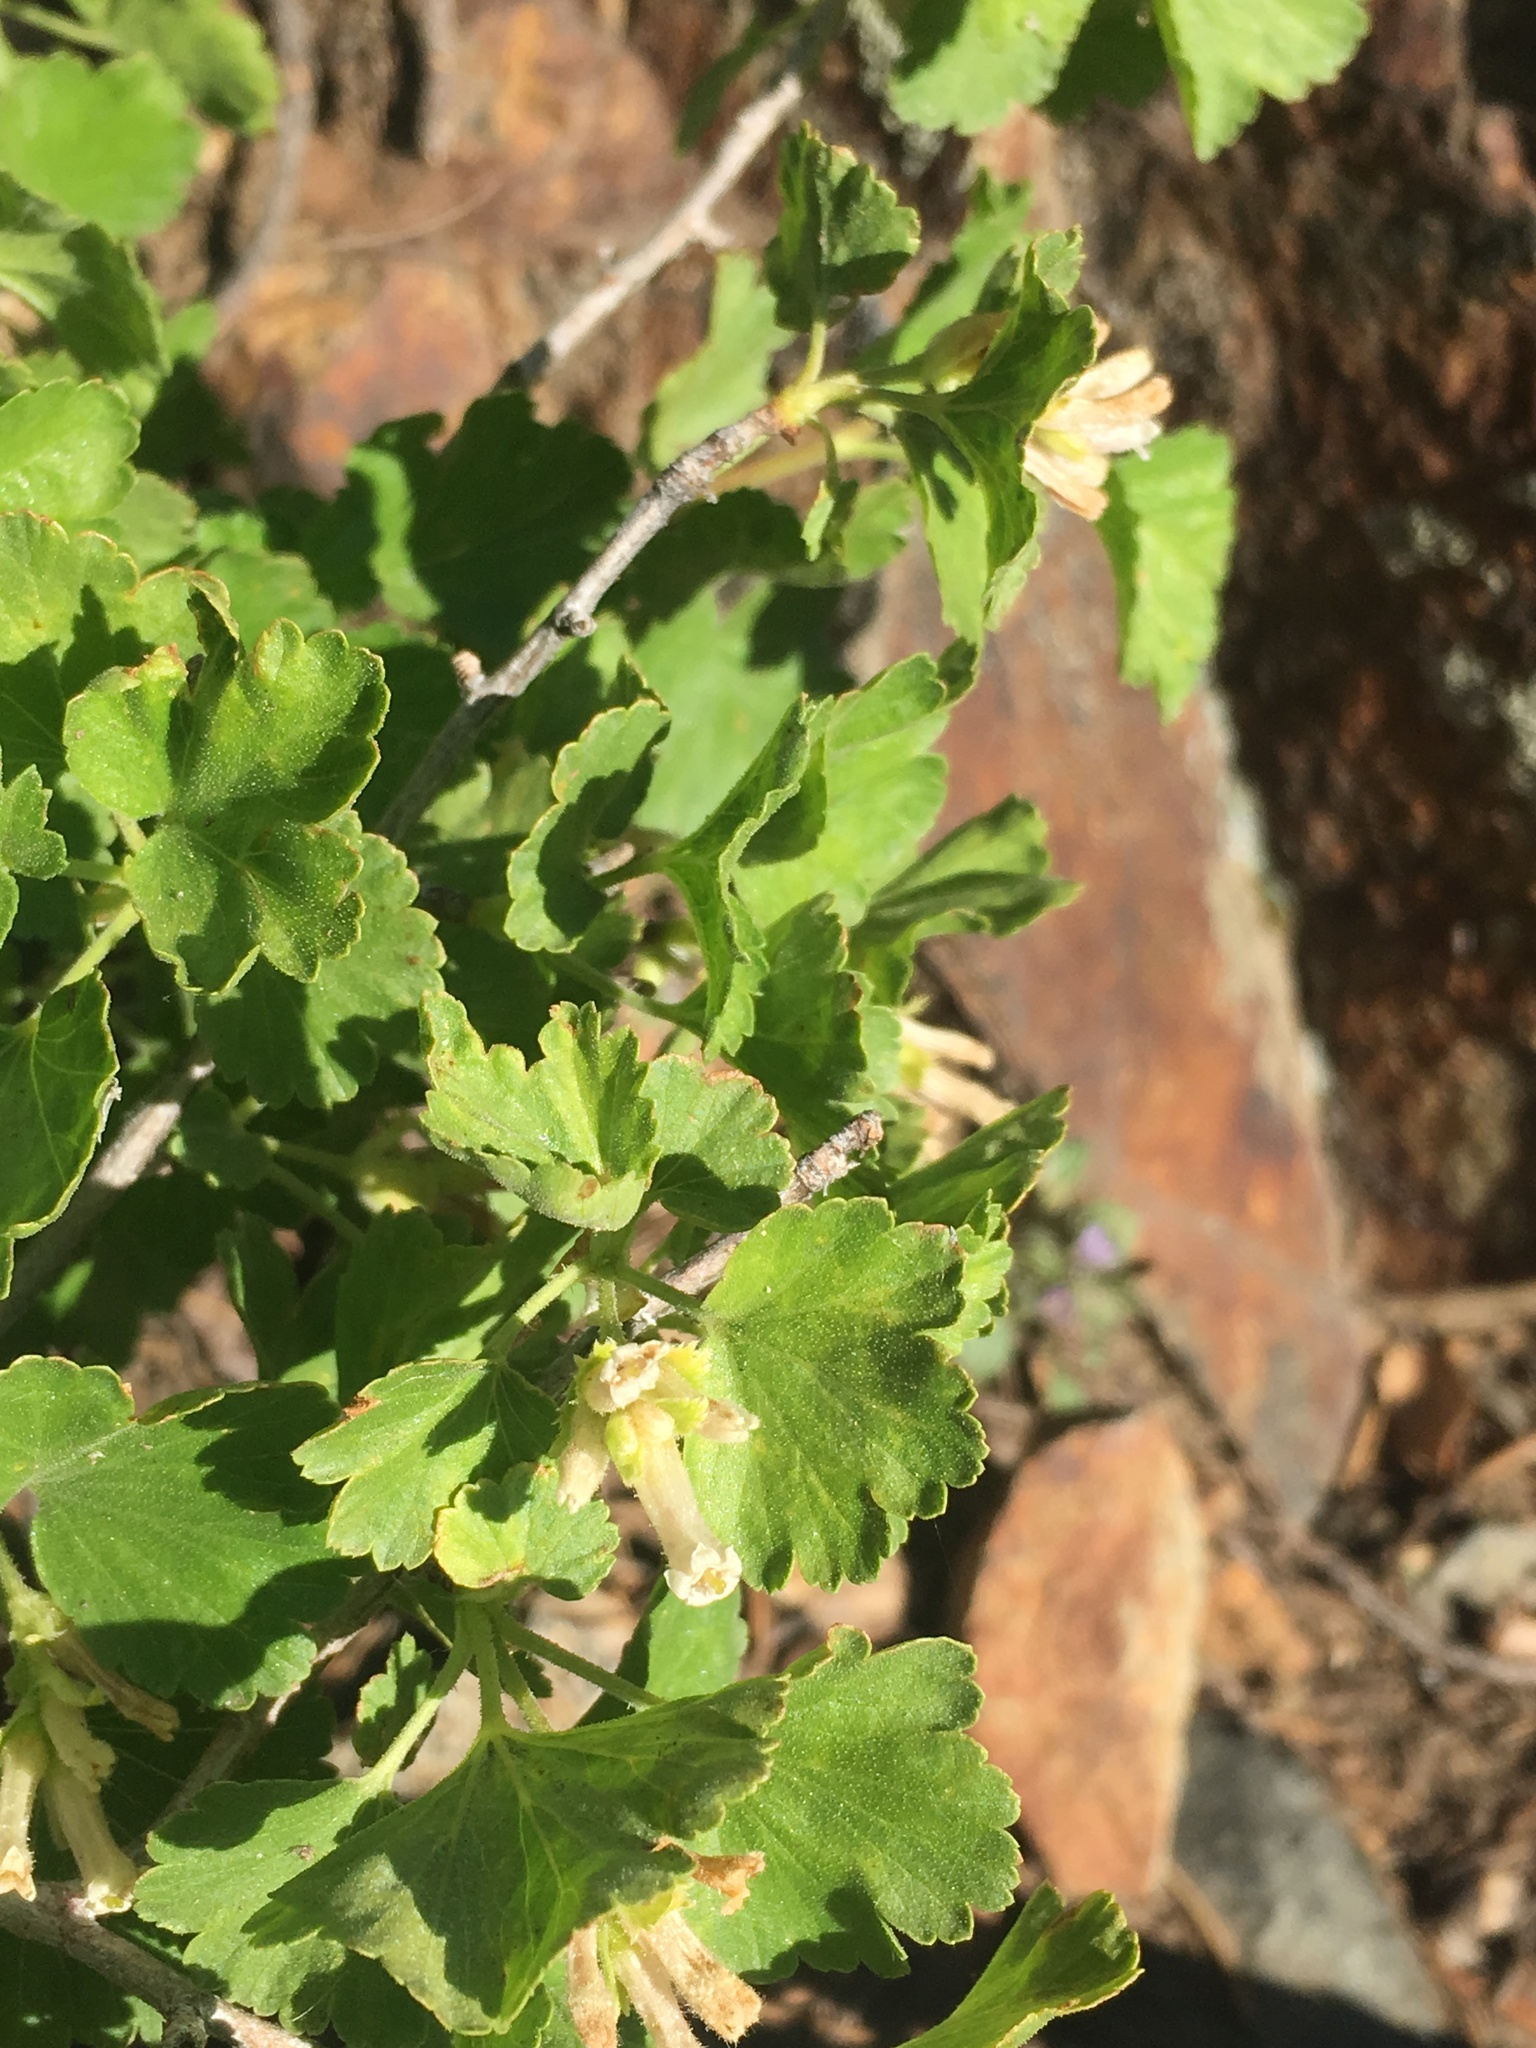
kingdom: Plantae
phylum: Tracheophyta
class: Magnoliopsida
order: Saxifragales
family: Grossulariaceae
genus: Ribes
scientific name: Ribes cereum
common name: Wax currant
